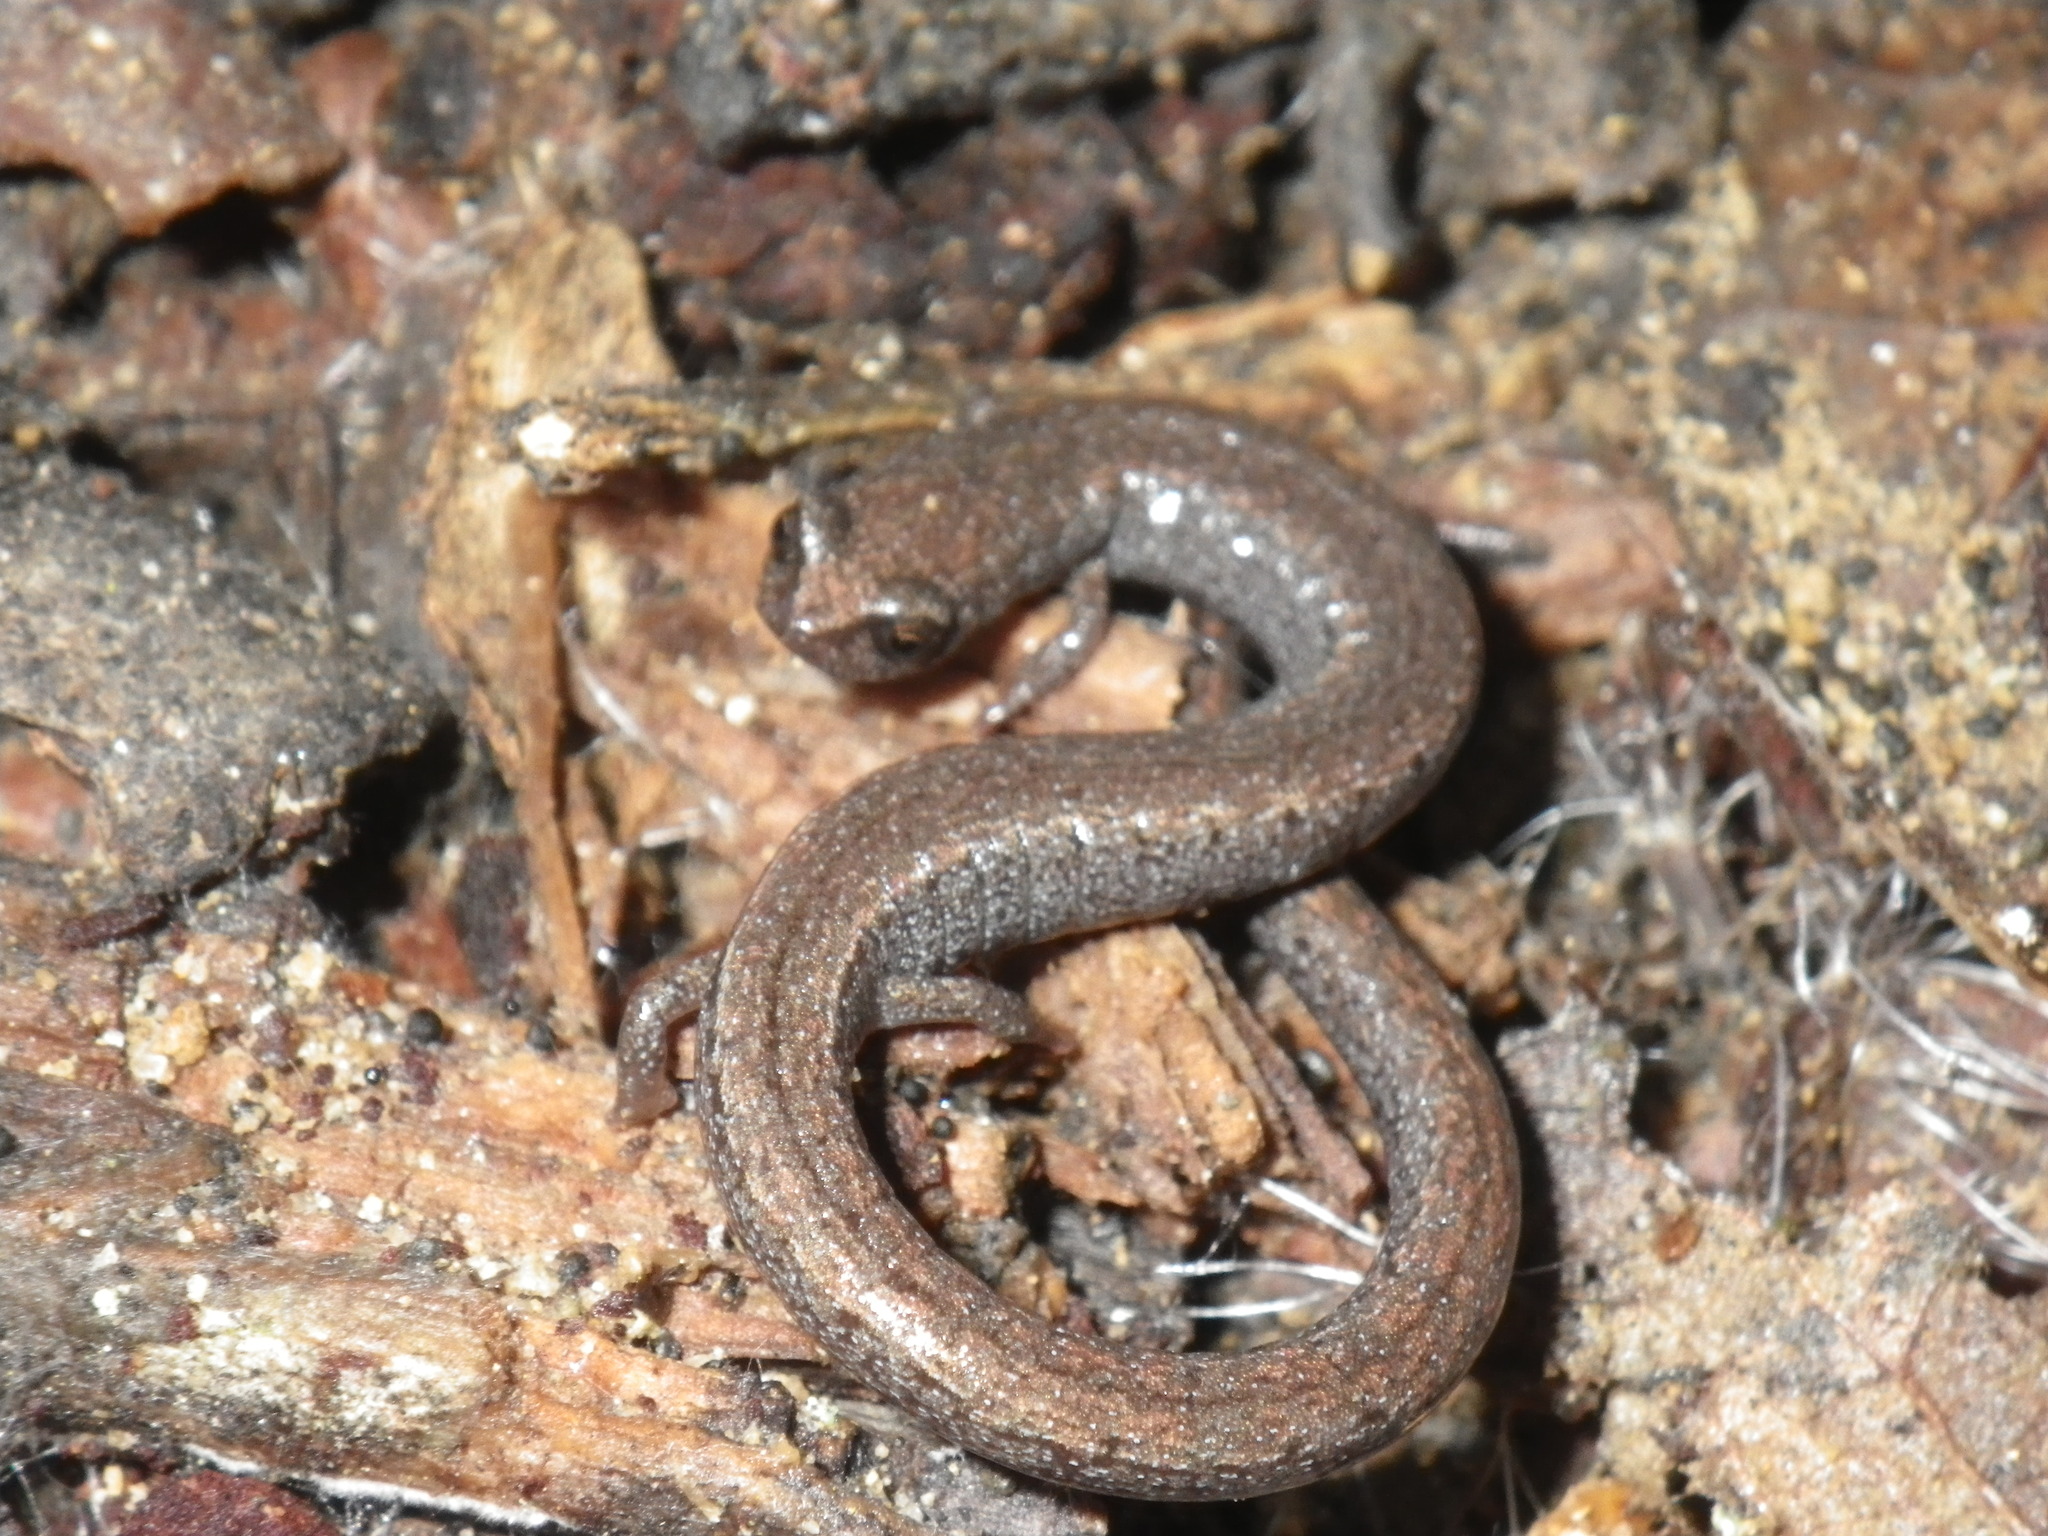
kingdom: Animalia
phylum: Chordata
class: Amphibia
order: Caudata
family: Plethodontidae
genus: Batrachoseps
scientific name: Batrachoseps attenuatus
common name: California slender salamander
